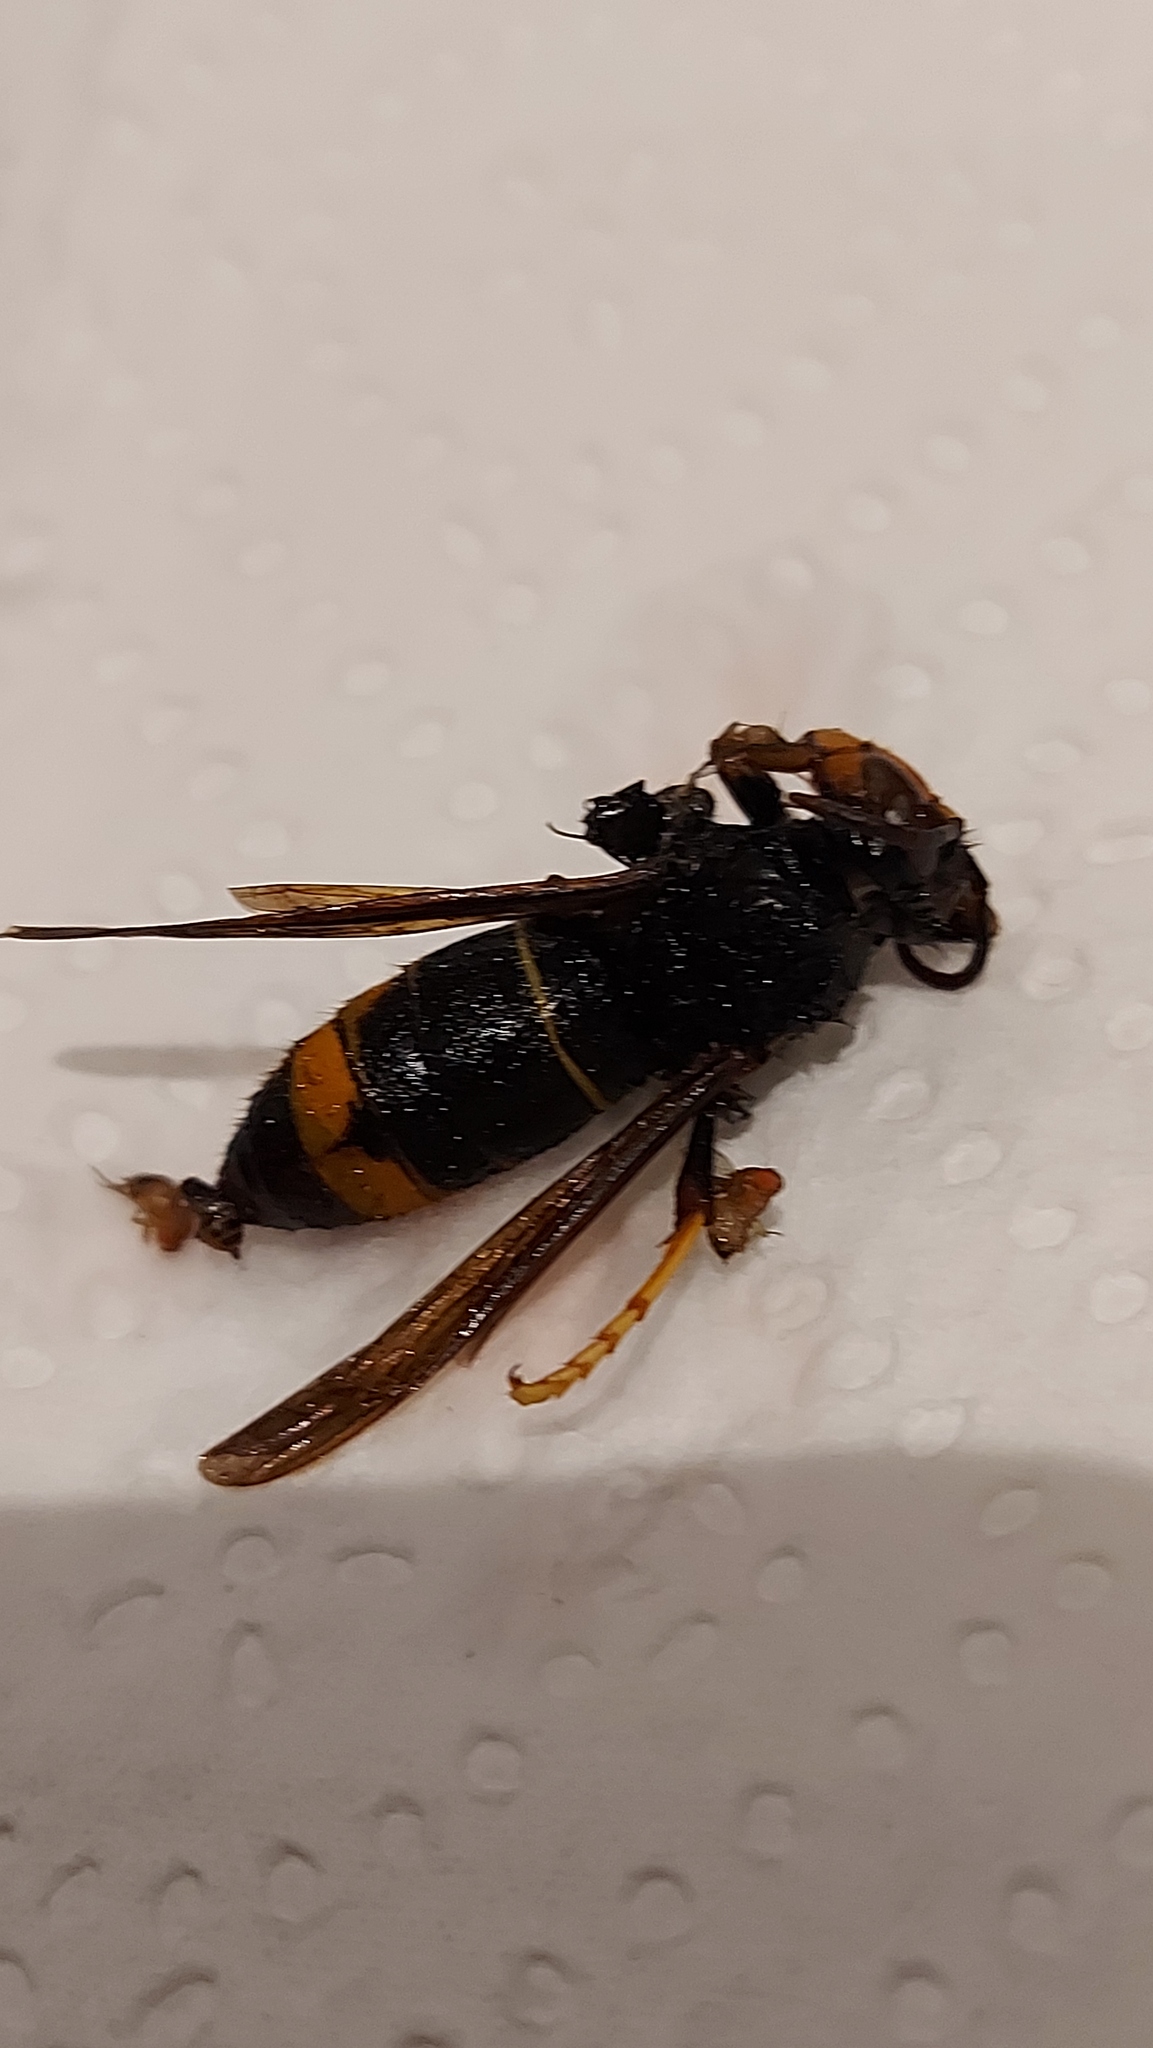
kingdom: Animalia
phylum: Arthropoda
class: Insecta
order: Hymenoptera
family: Vespidae
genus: Vespa
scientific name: Vespa velutina
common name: Asian hornet
